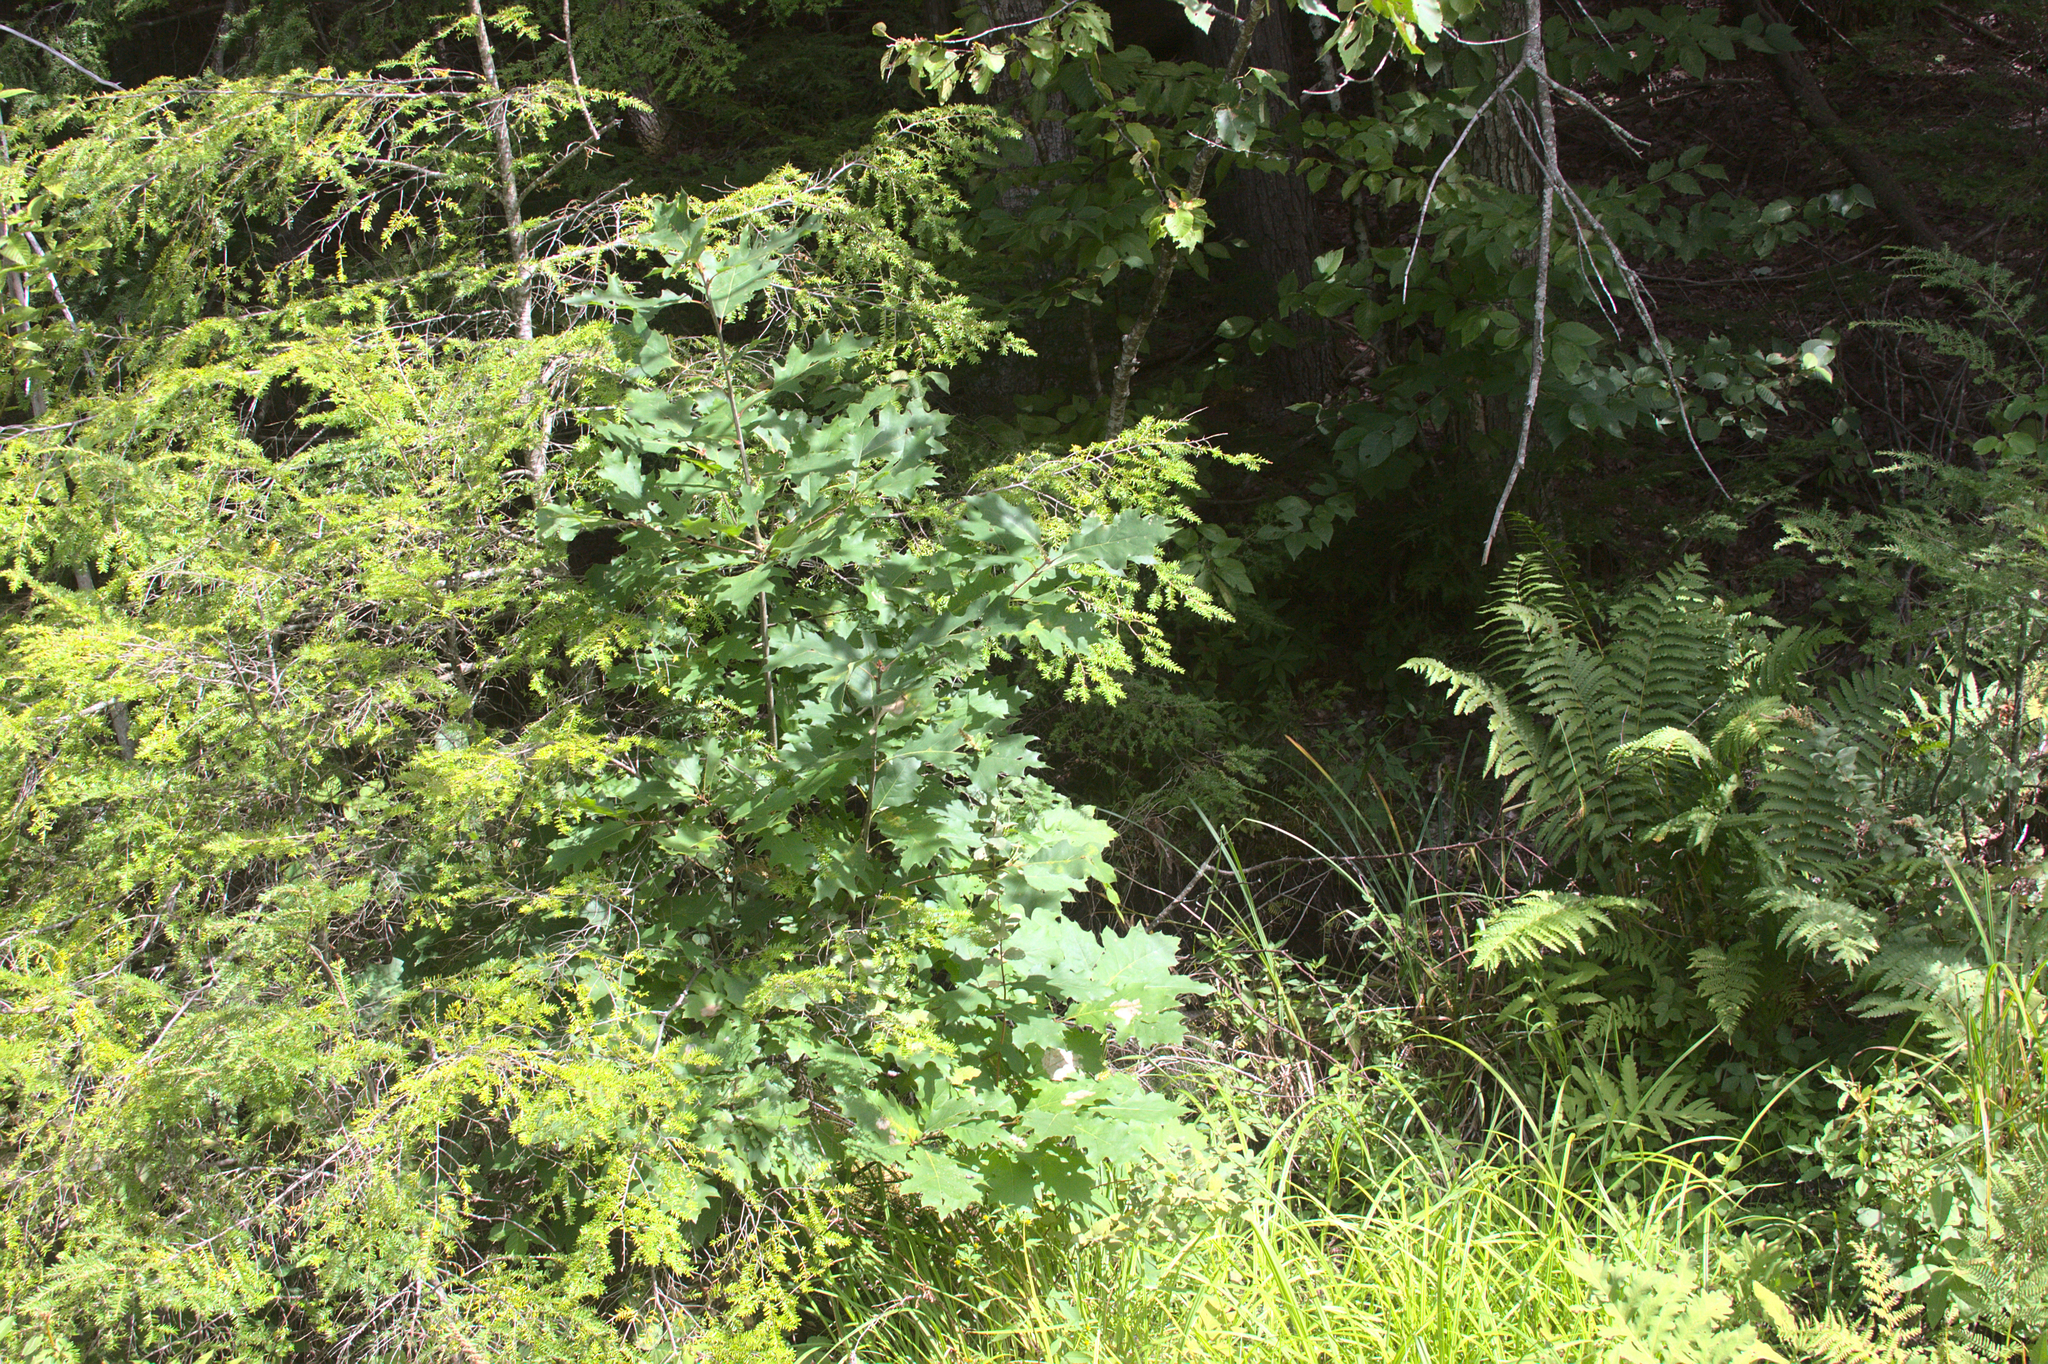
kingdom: Plantae
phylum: Tracheophyta
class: Magnoliopsida
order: Fagales
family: Fagaceae
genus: Quercus
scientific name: Quercus rubra
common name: Red oak
